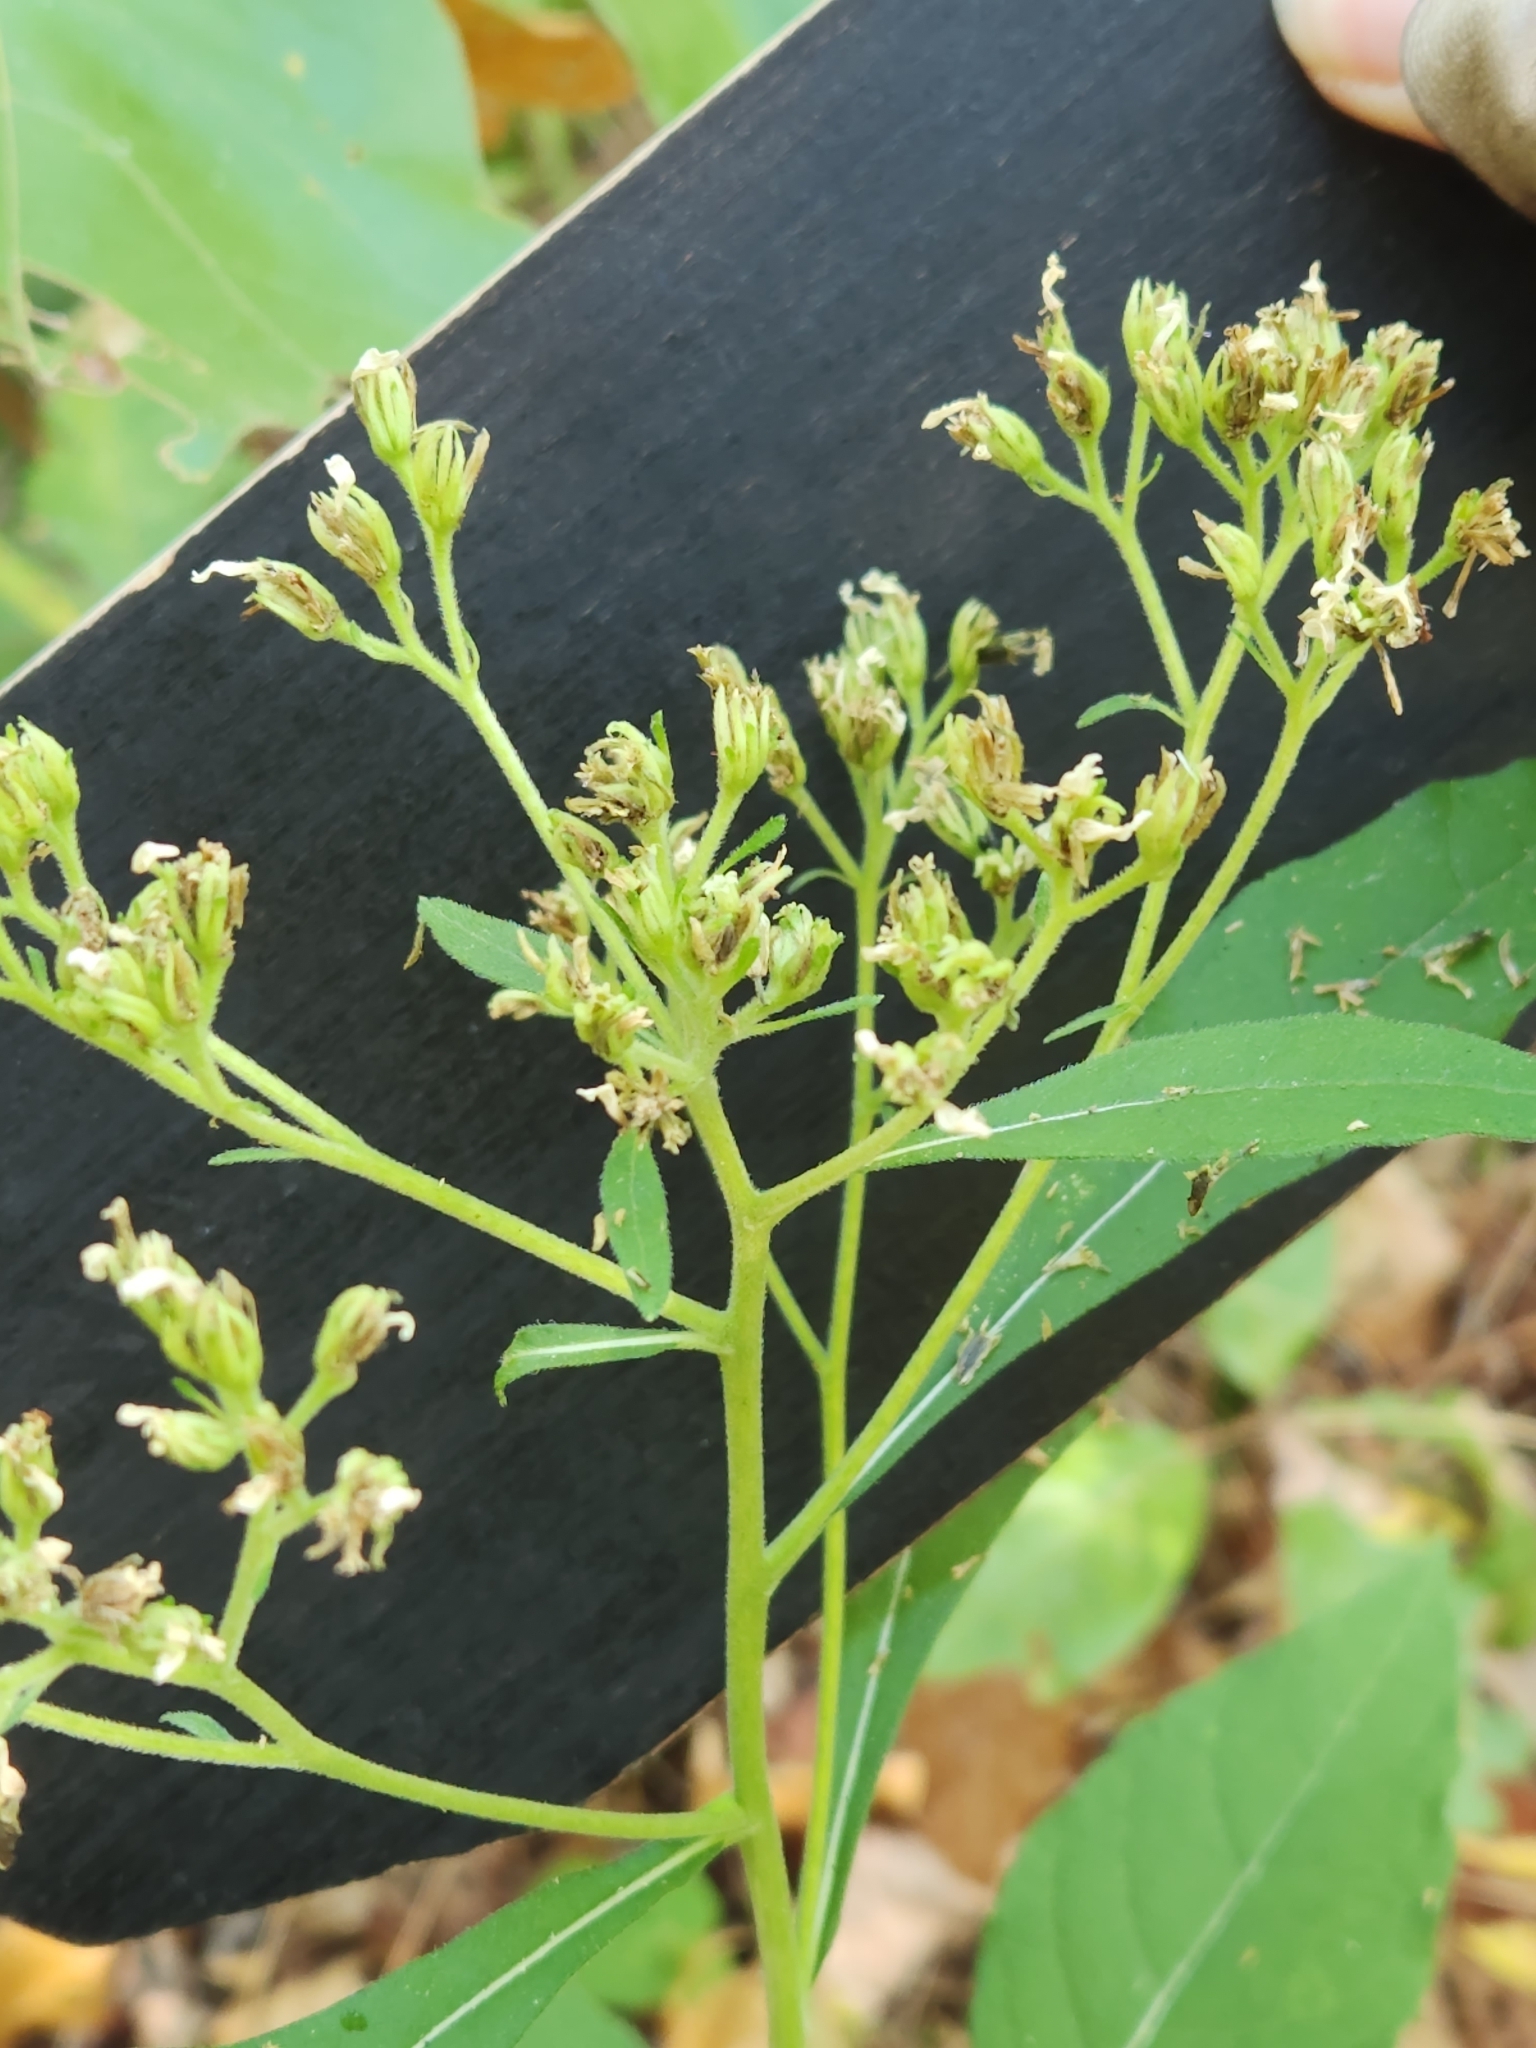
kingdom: Plantae
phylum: Tracheophyta
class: Magnoliopsida
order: Asterales
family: Asteraceae
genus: Verbesina
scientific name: Verbesina virginica
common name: Frostweed
